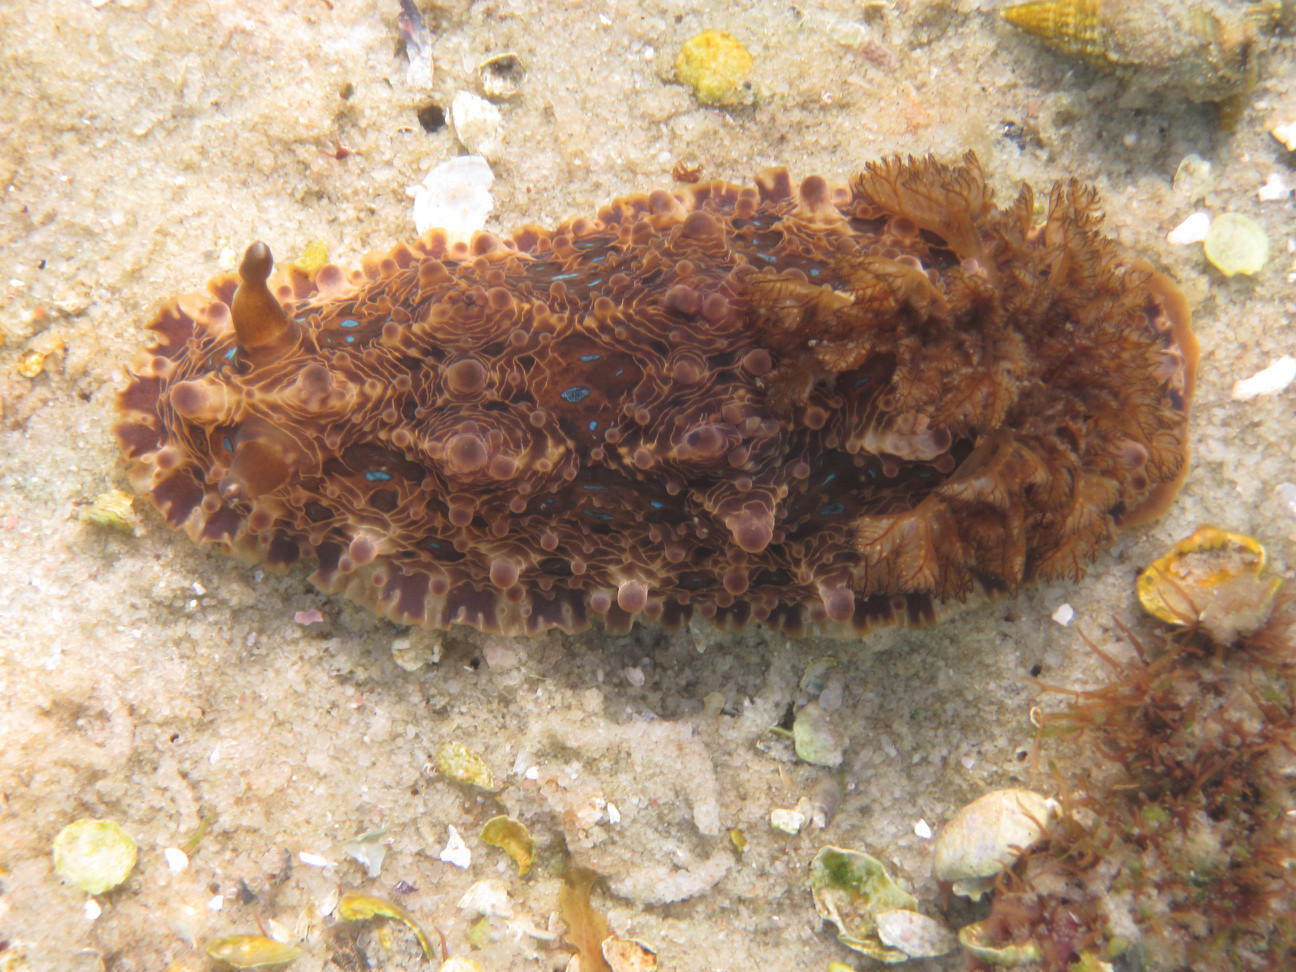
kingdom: Animalia
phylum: Mollusca
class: Gastropoda
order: Nudibranchia
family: Dendrodorididae
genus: Dendrodoris
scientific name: Dendrodoris krusensternii
